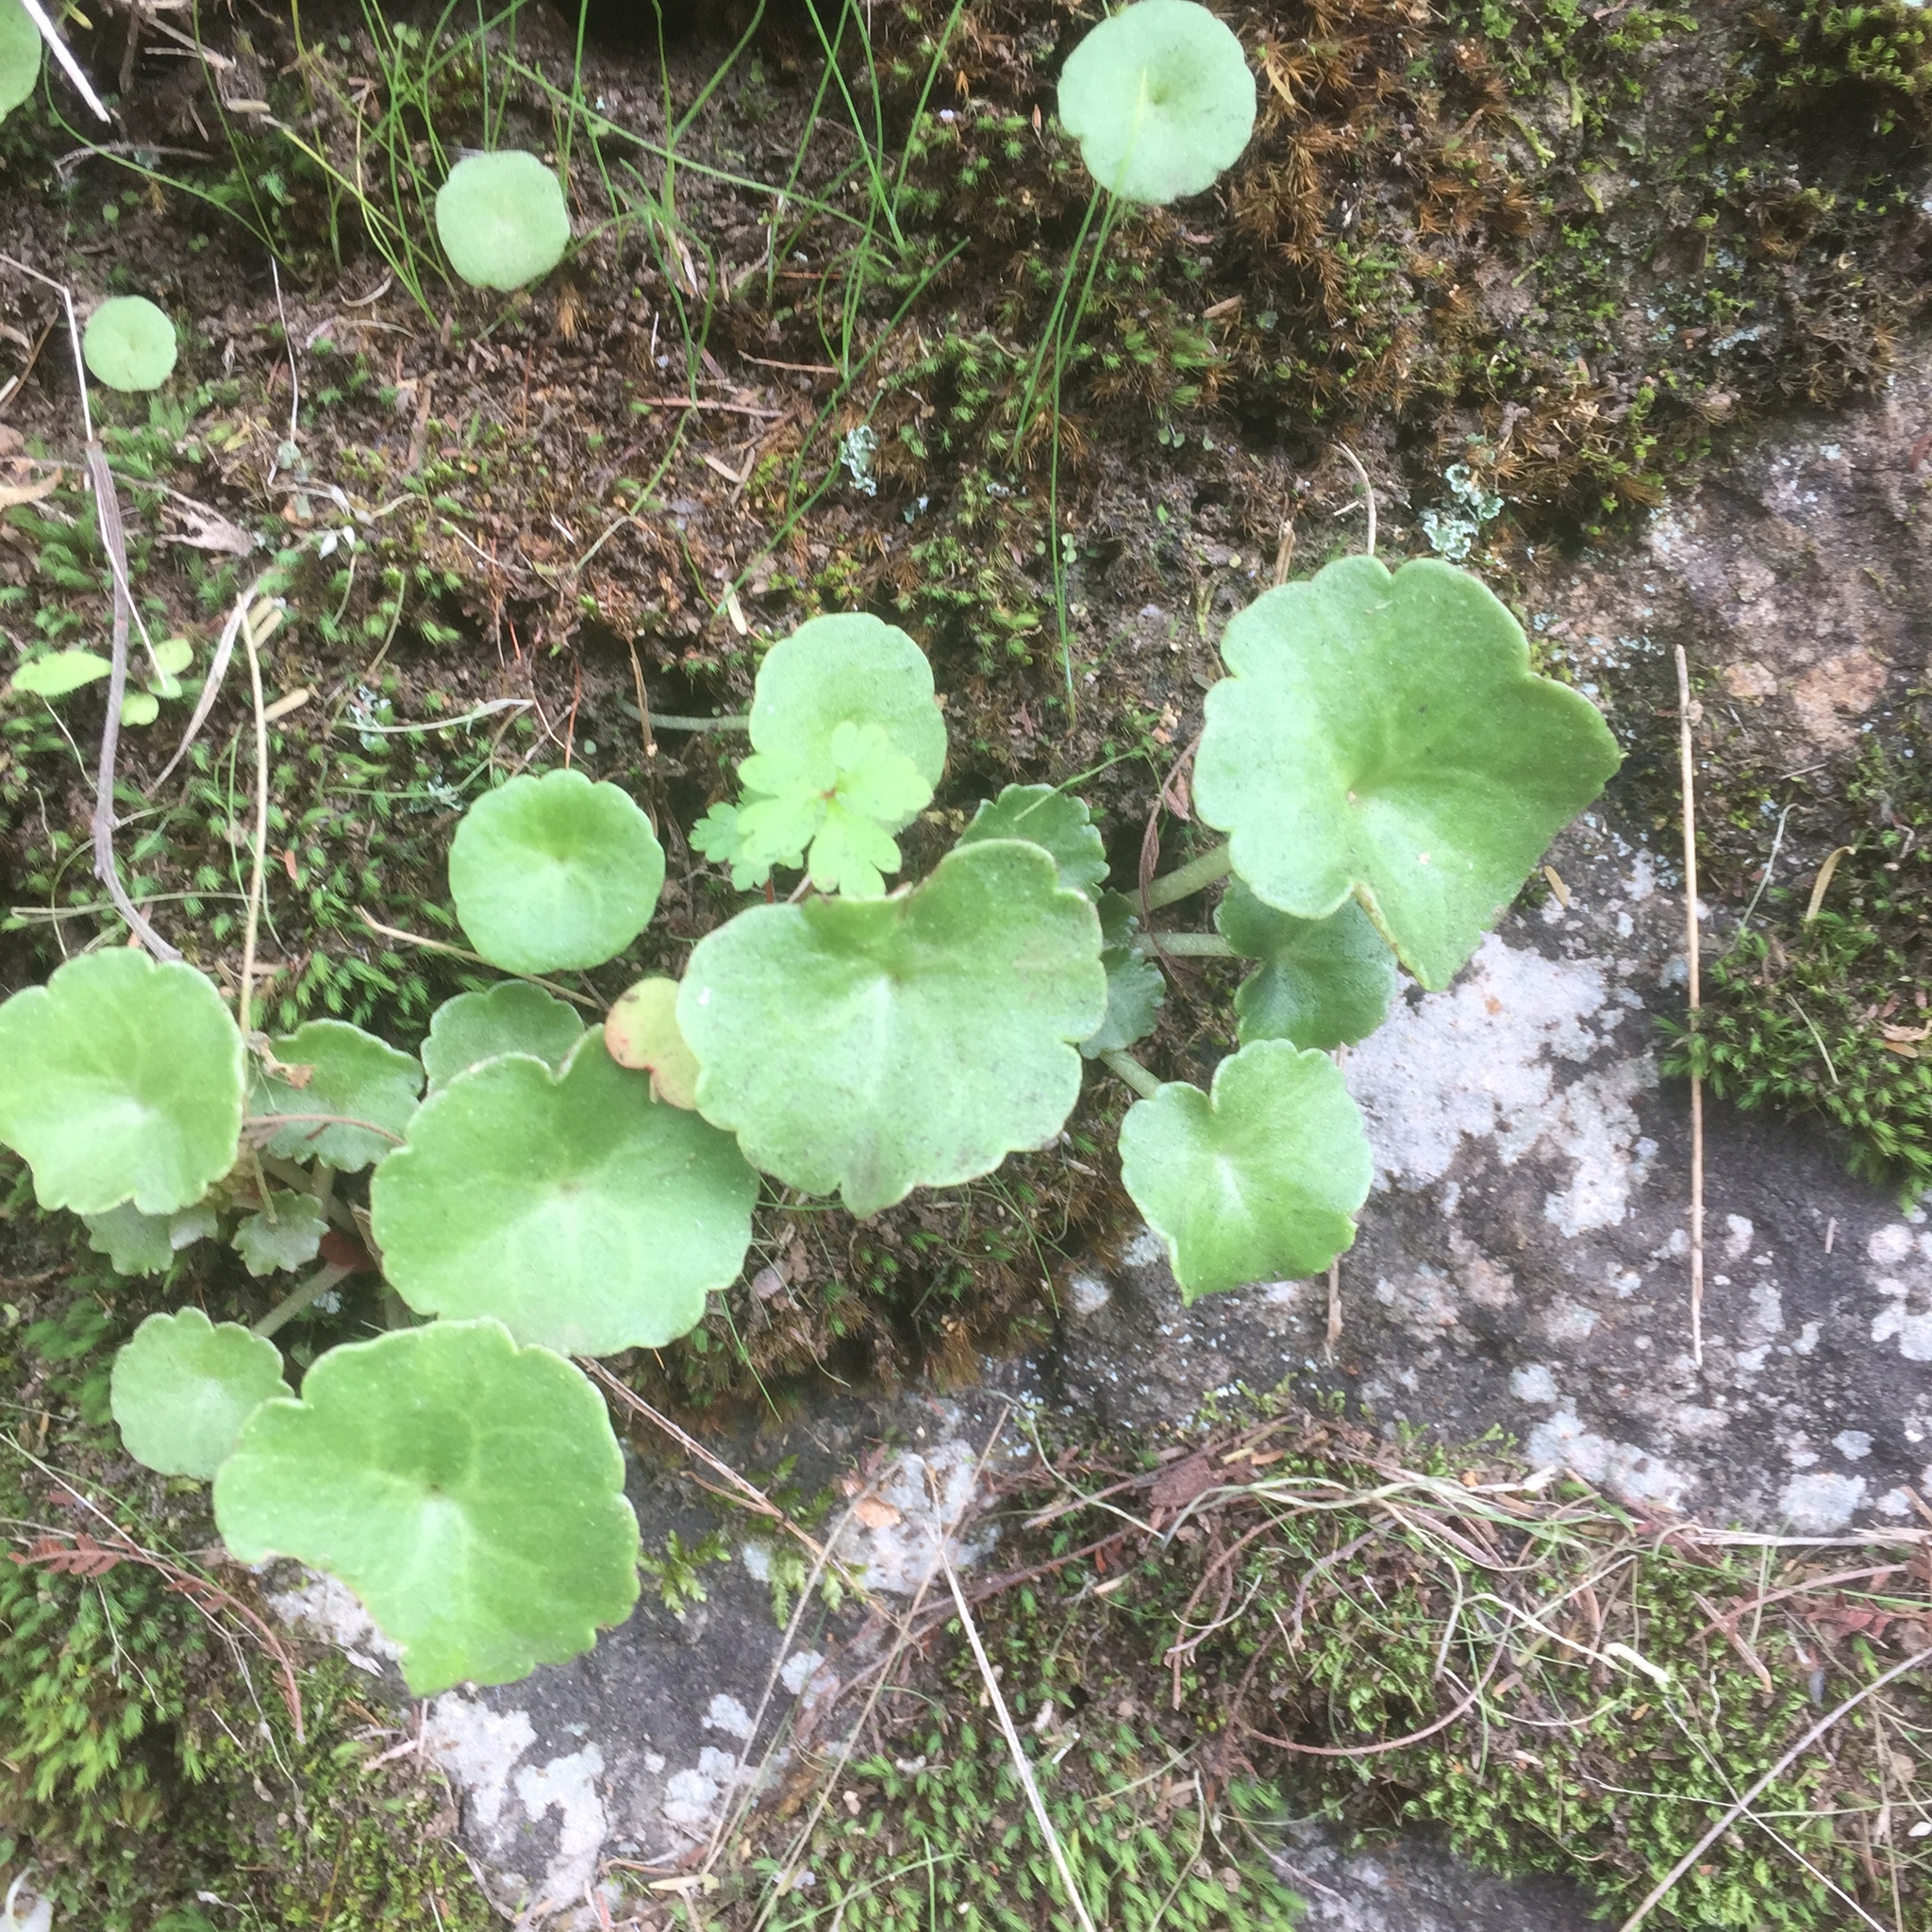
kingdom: Plantae
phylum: Tracheophyta
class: Magnoliopsida
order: Saxifragales
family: Crassulaceae
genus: Umbilicus
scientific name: Umbilicus rupestris
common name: Navelwort
